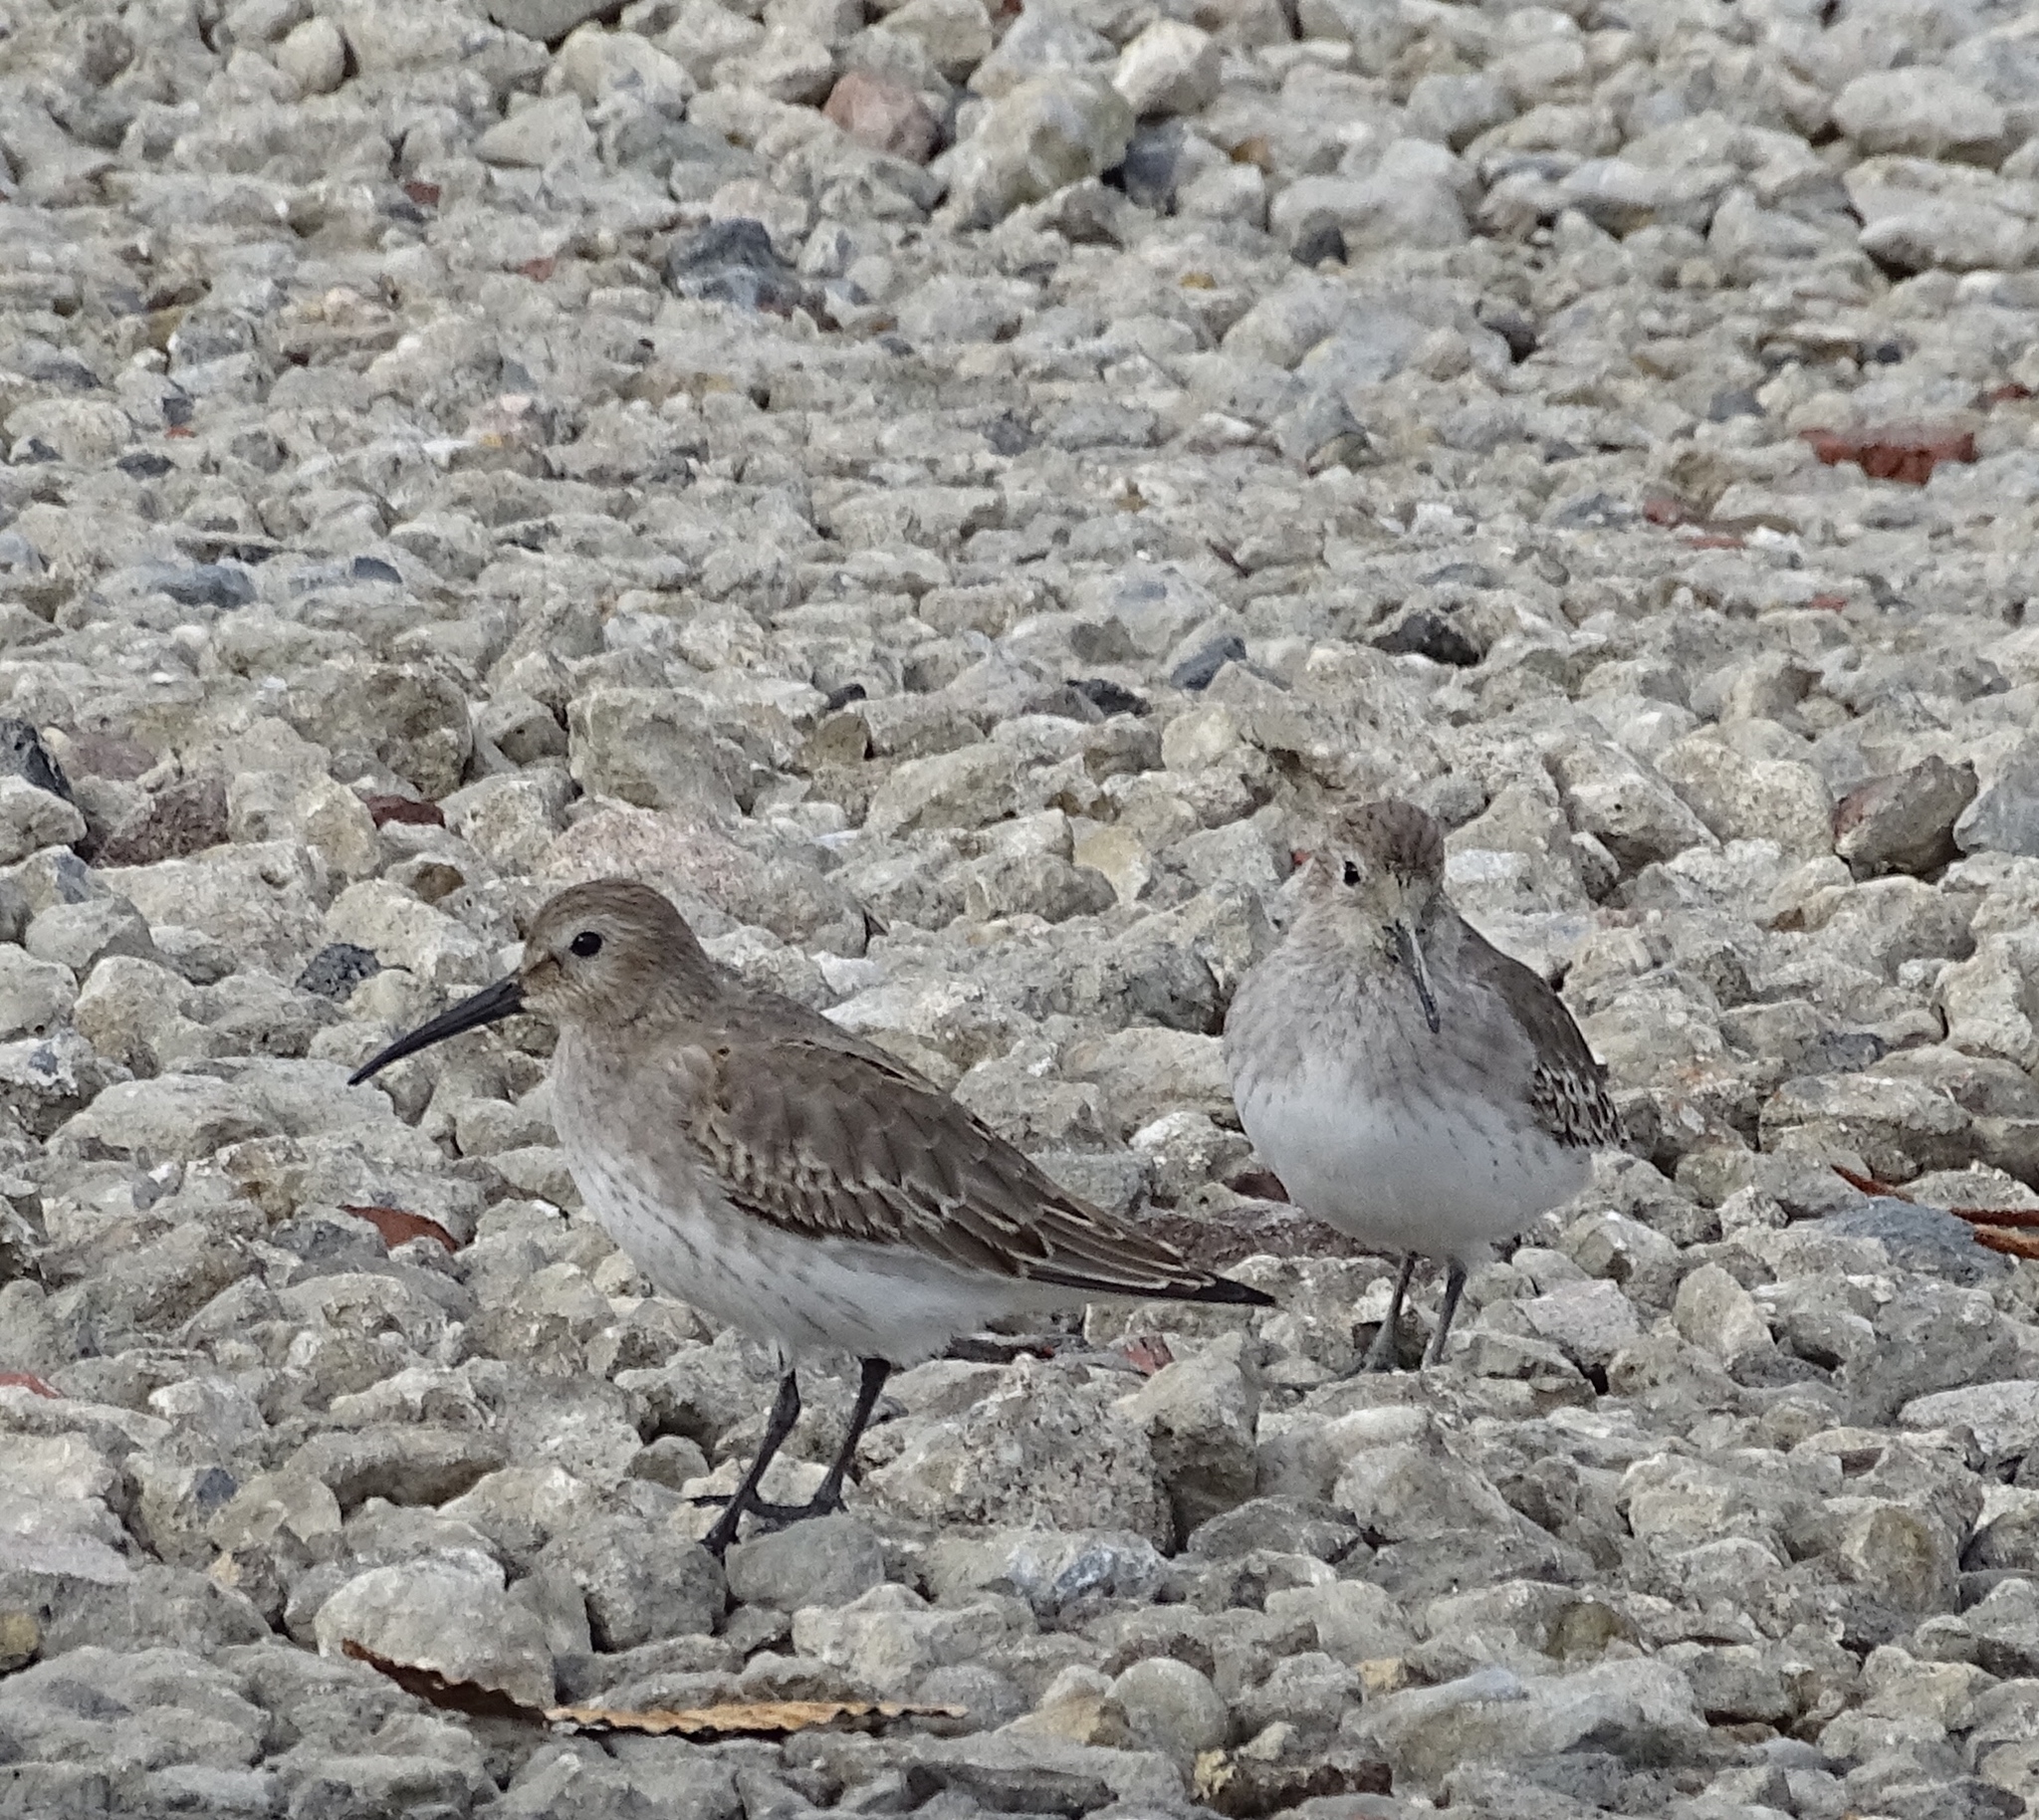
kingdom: Animalia
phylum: Chordata
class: Aves
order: Charadriiformes
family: Scolopacidae
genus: Calidris
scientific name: Calidris alpina
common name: Dunlin
